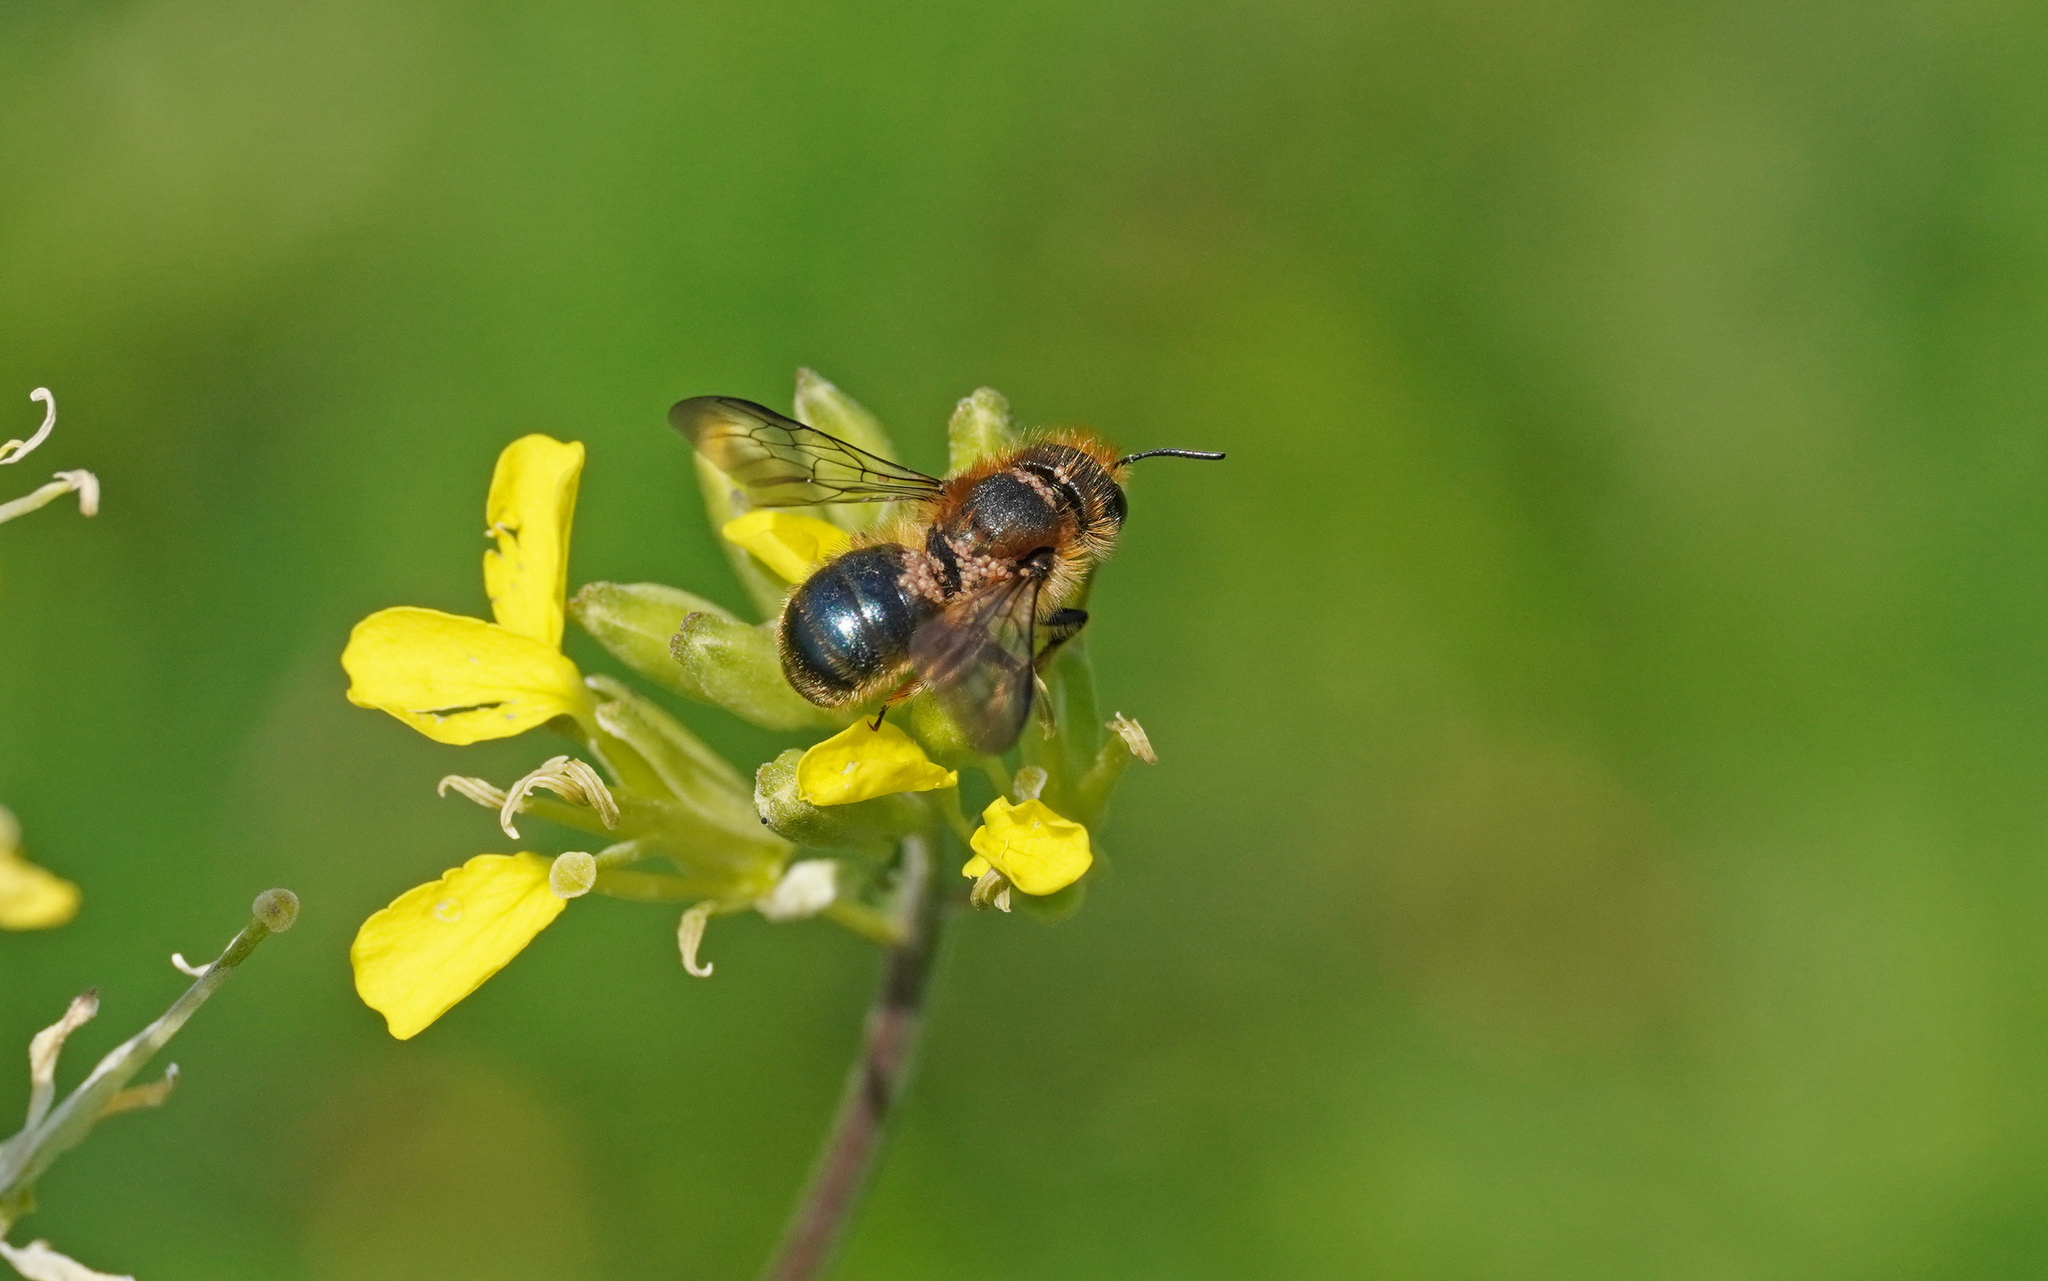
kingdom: Animalia
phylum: Arthropoda
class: Insecta
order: Hymenoptera
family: Megachilidae
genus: Osmia
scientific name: Osmia brevicornis
